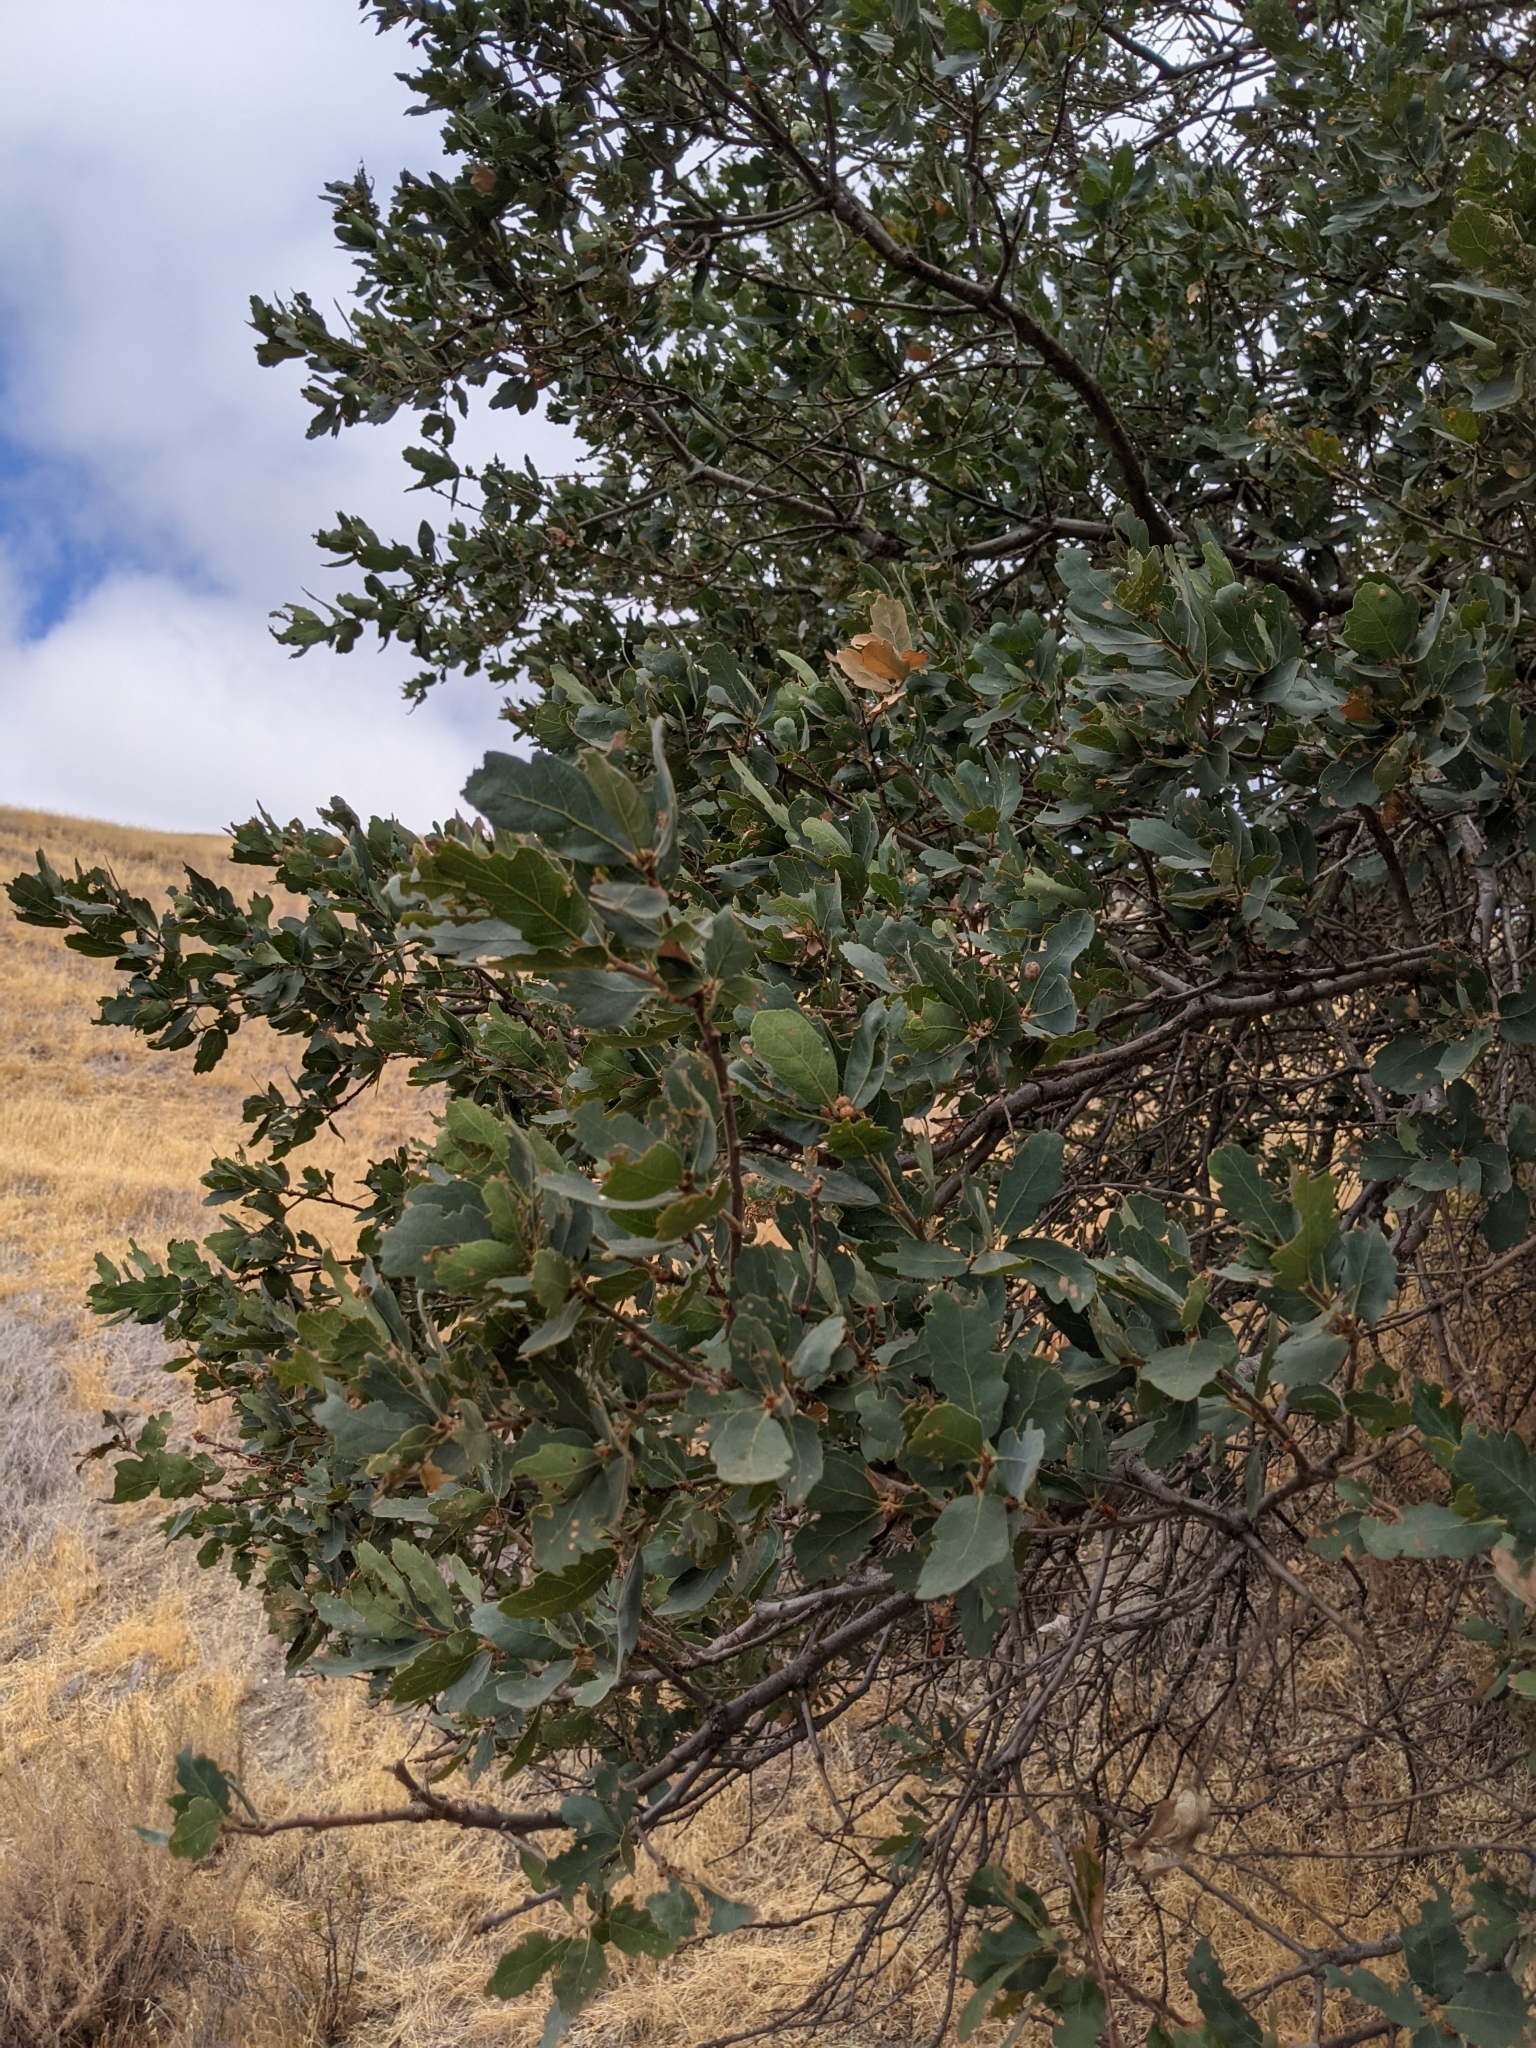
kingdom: Plantae
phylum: Tracheophyta
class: Magnoliopsida
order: Fagales
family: Fagaceae
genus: Quercus
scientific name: Quercus douglasii
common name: Blue oak
